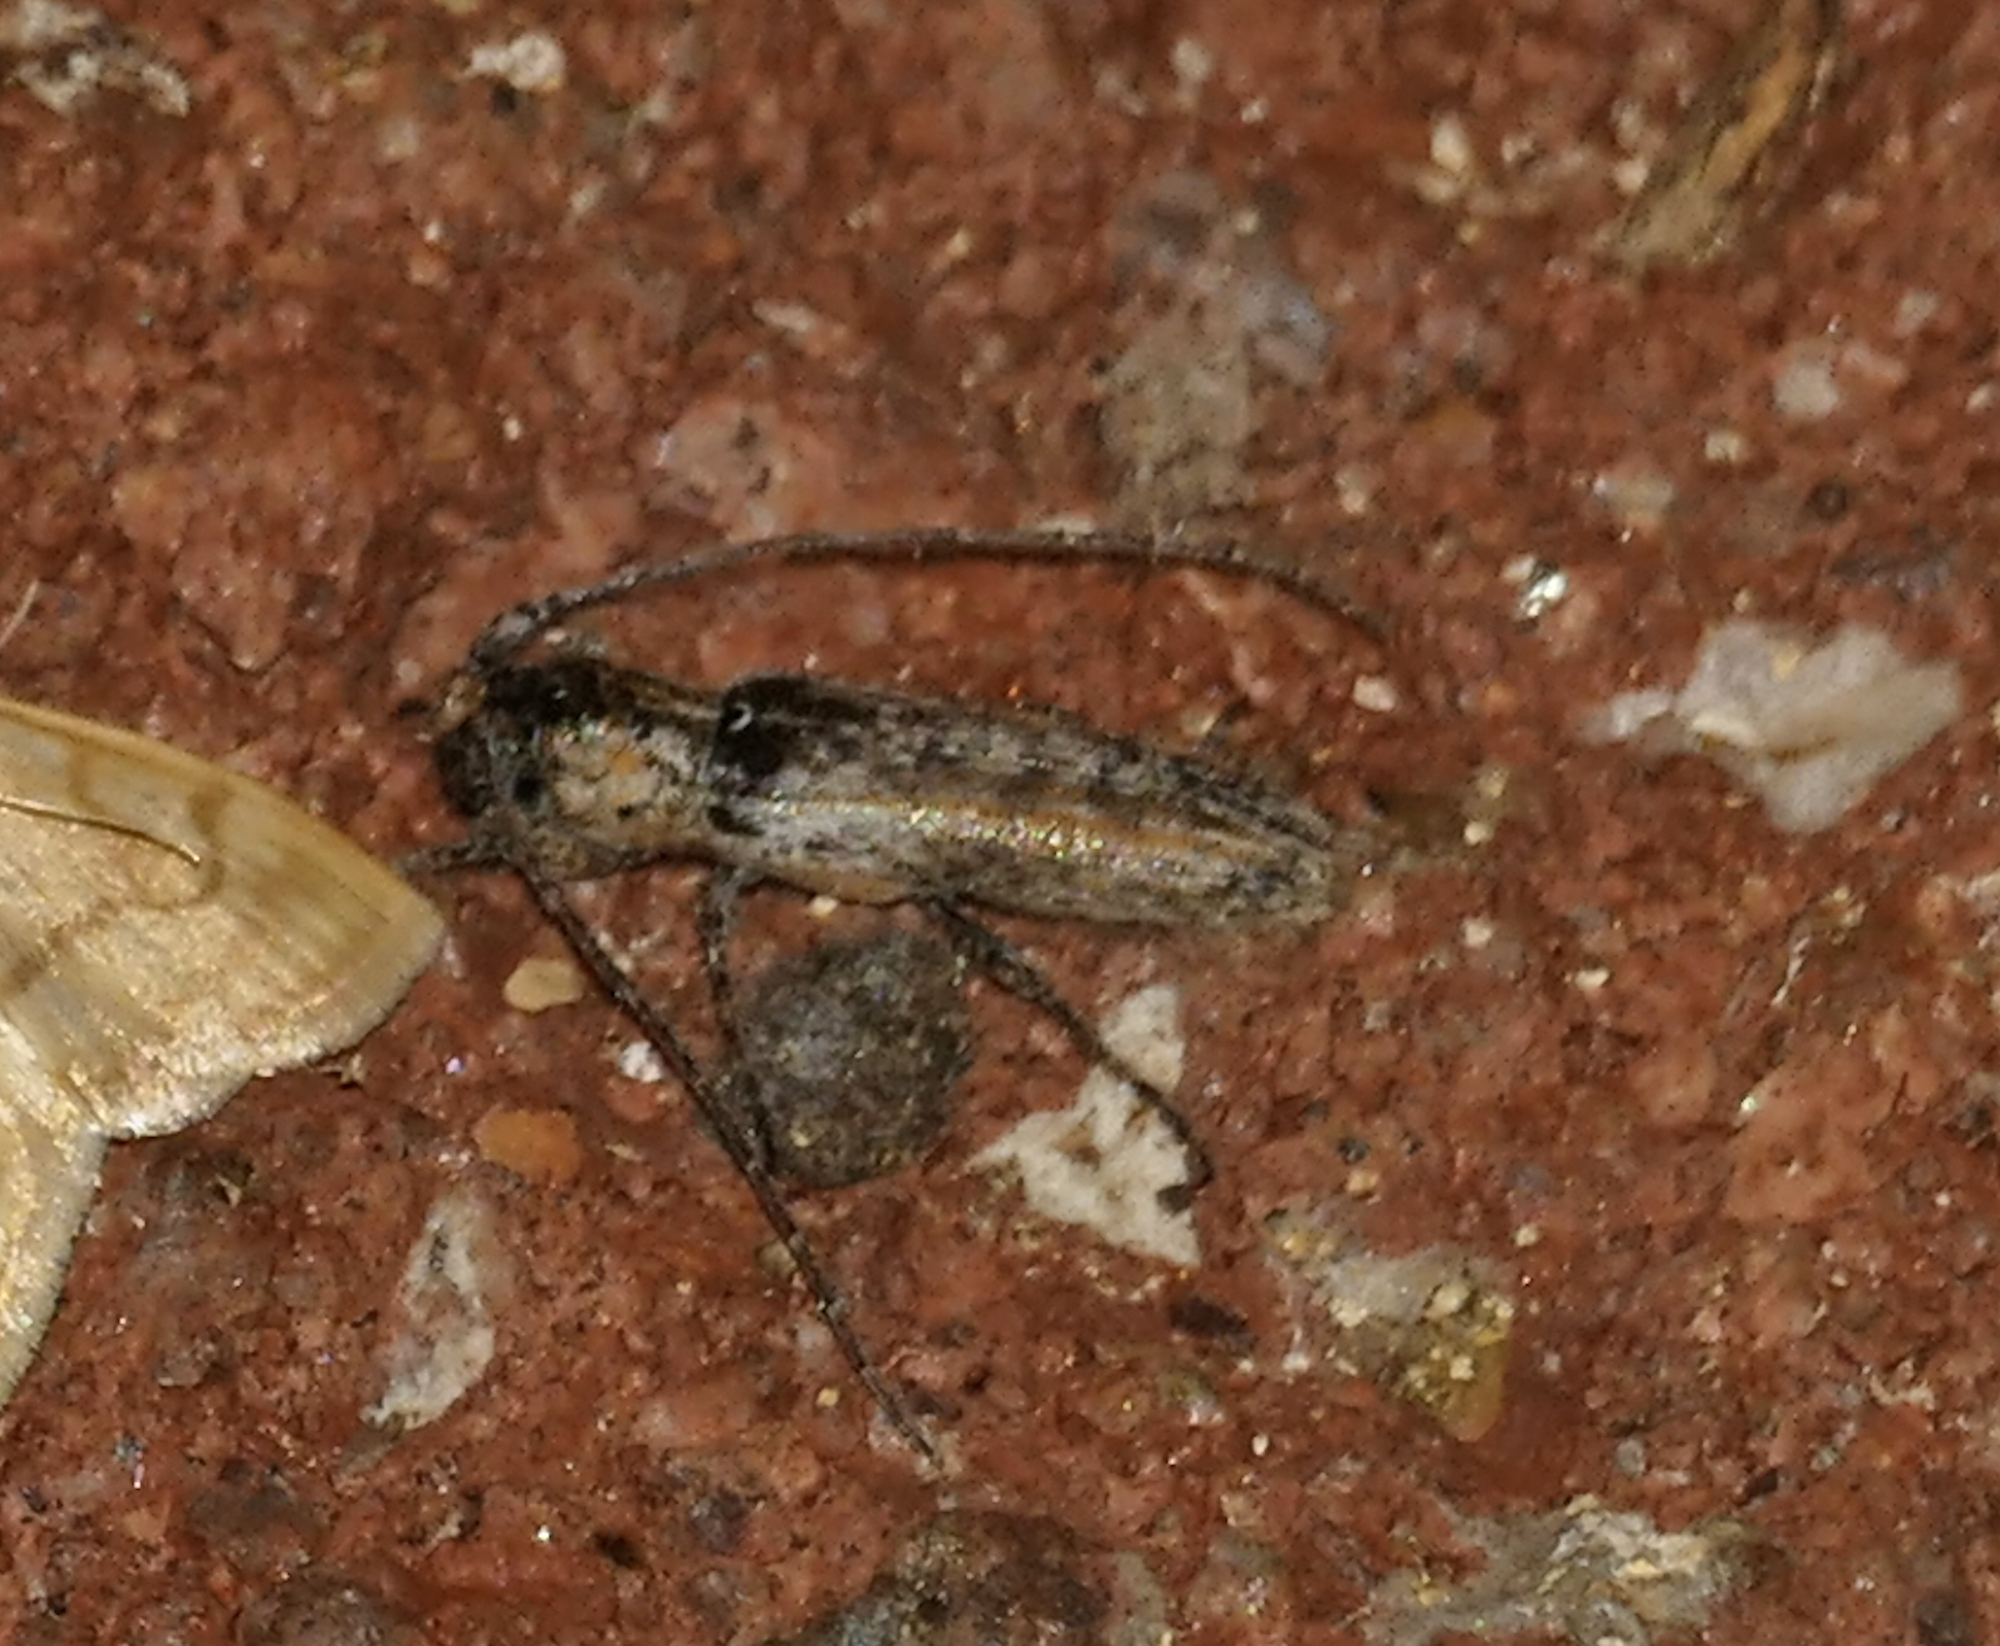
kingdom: Animalia
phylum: Arthropoda
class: Insecta
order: Coleoptera
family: Cerambycidae
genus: Ataxia
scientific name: Ataxia arizonica
